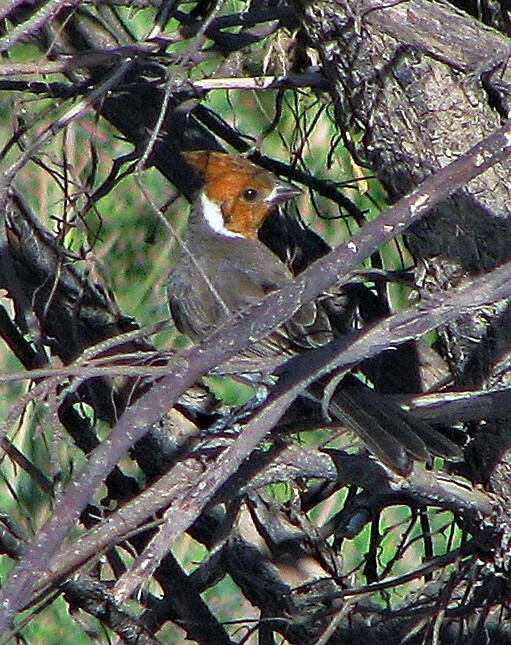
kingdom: Animalia
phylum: Chordata
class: Aves
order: Passeriformes
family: Thraupidae
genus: Paroaria
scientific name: Paroaria coronata
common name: Red-crested cardinal
